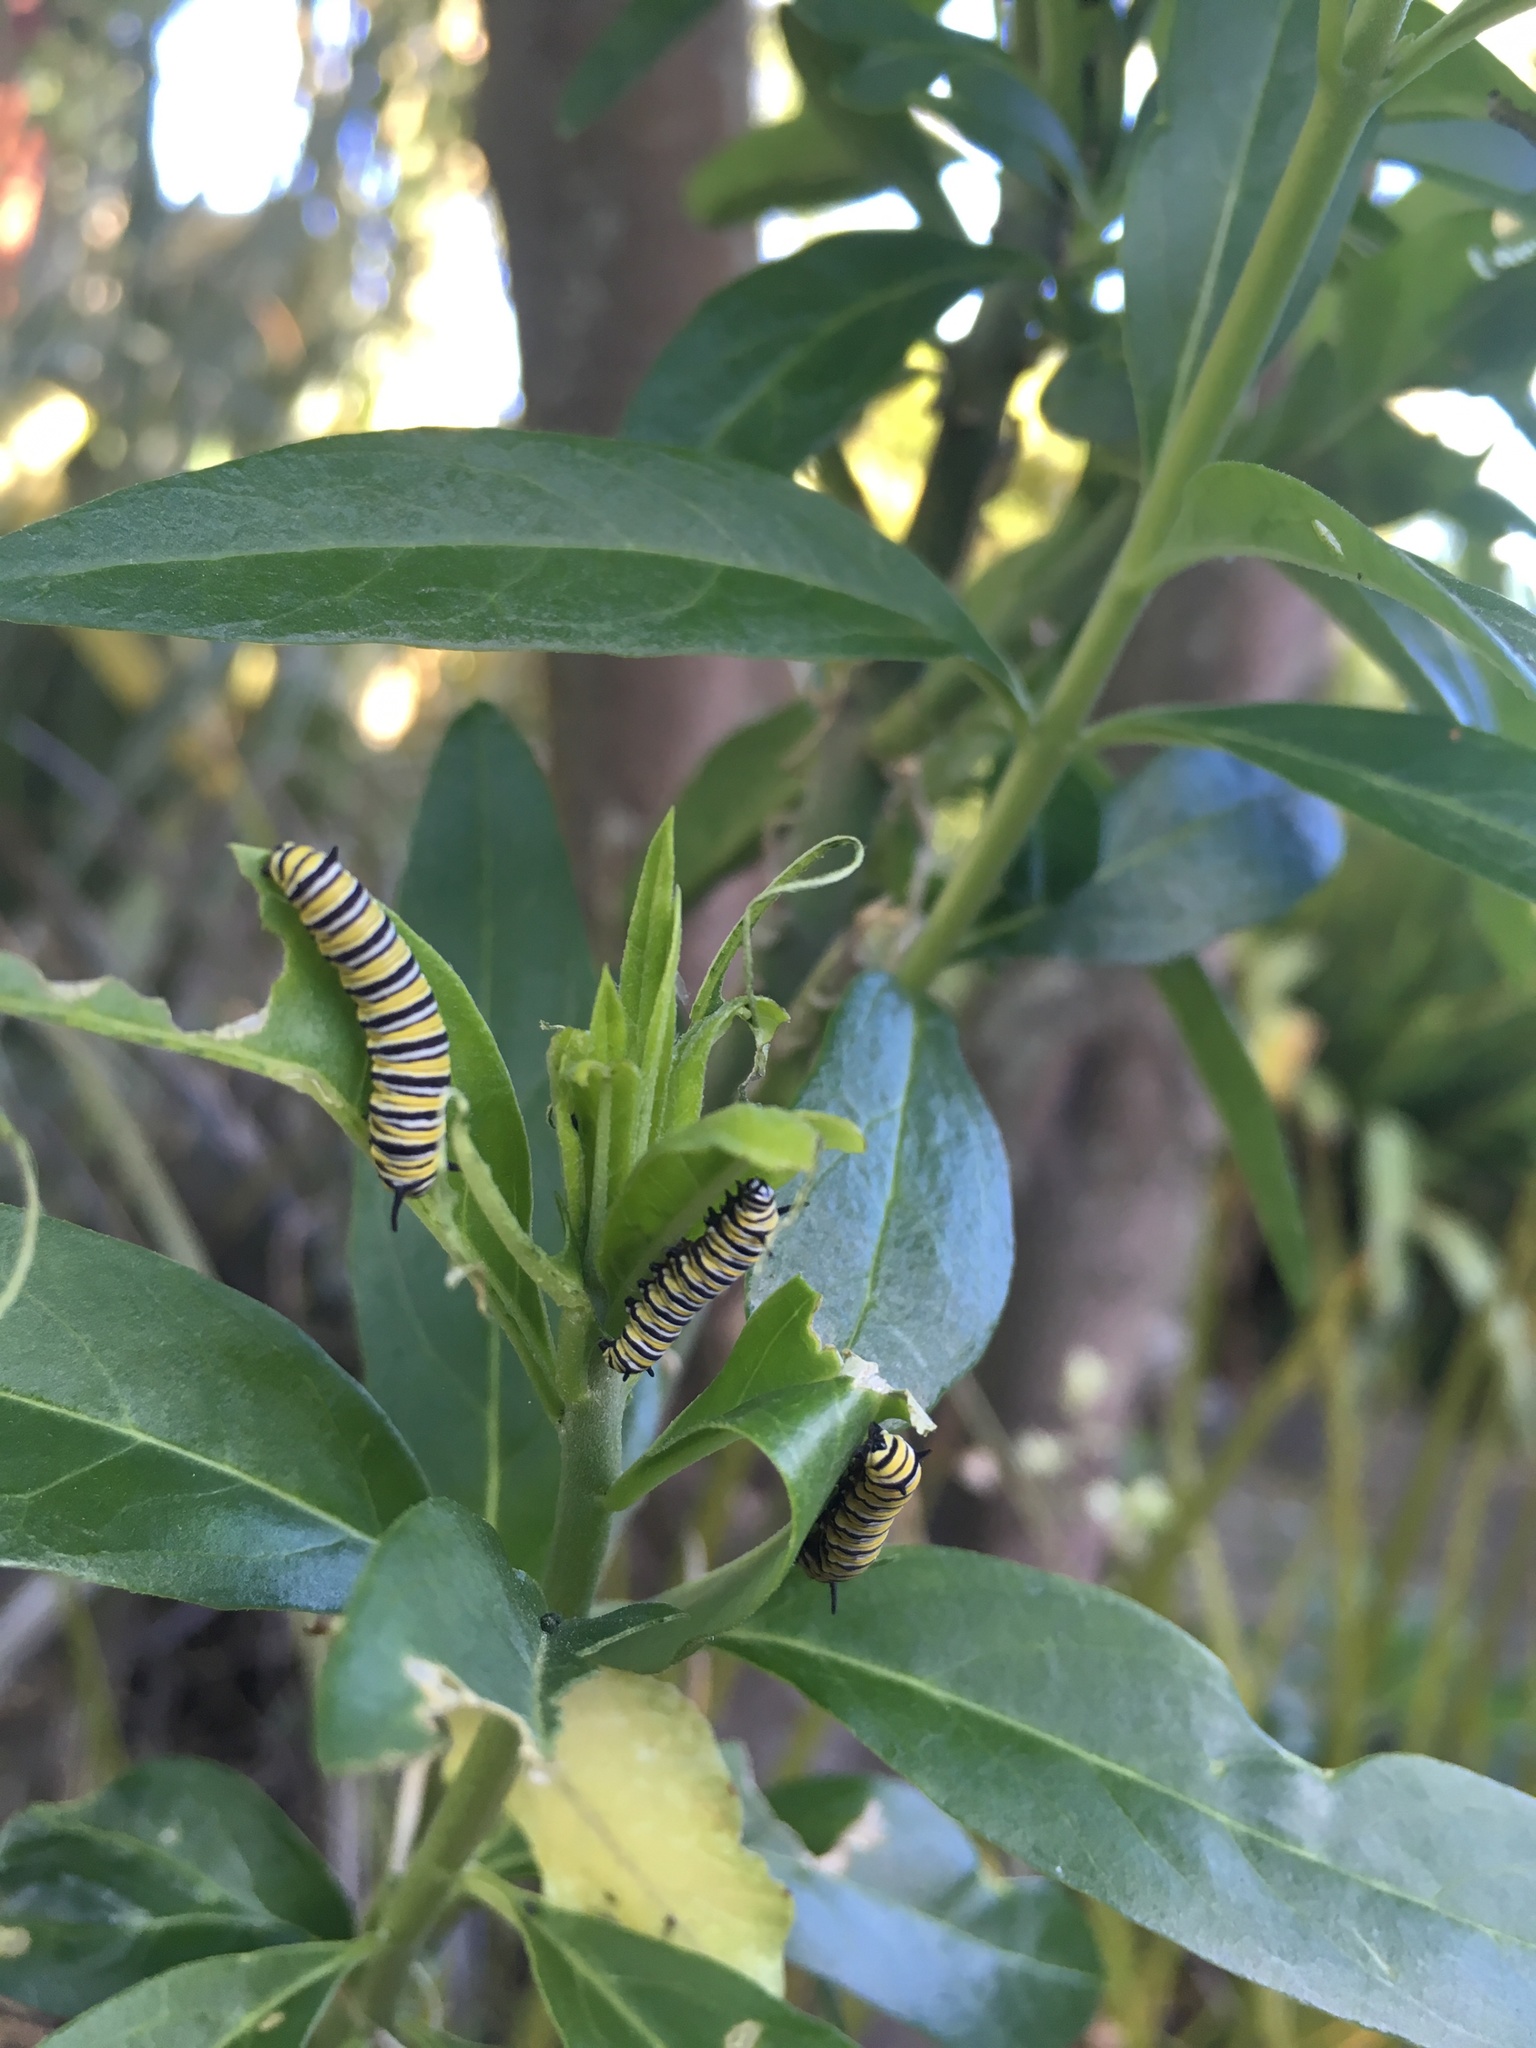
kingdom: Animalia
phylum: Arthropoda
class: Insecta
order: Lepidoptera
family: Nymphalidae
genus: Danaus
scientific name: Danaus plexippus
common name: Monarch
